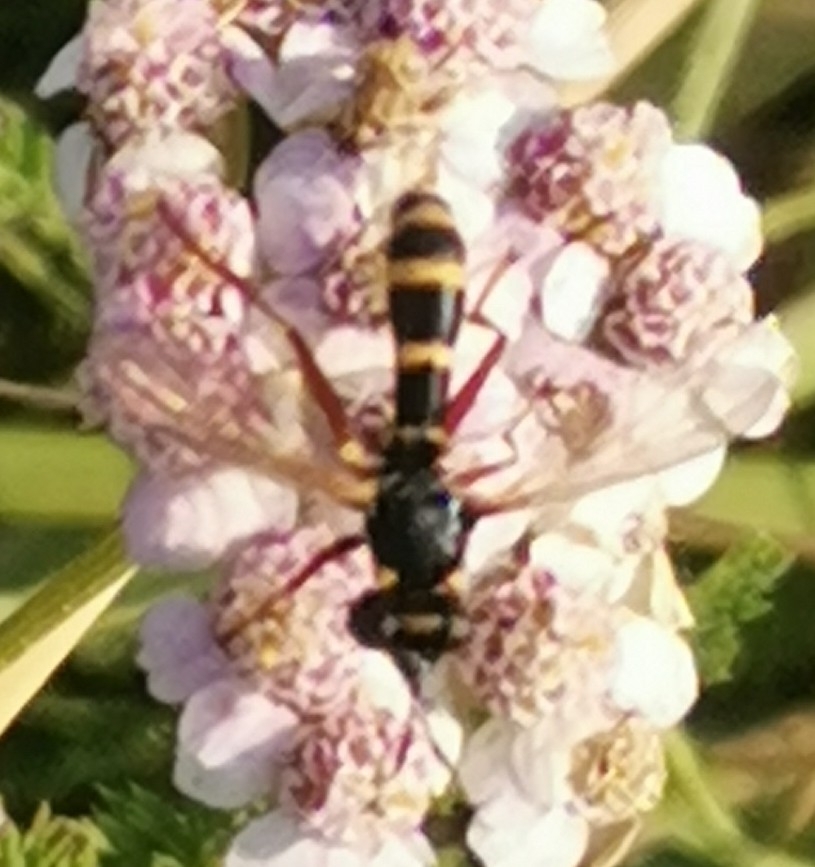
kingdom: Animalia
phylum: Arthropoda
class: Insecta
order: Diptera
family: Conopidae
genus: Conops
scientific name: Conops quadrifasciatus
